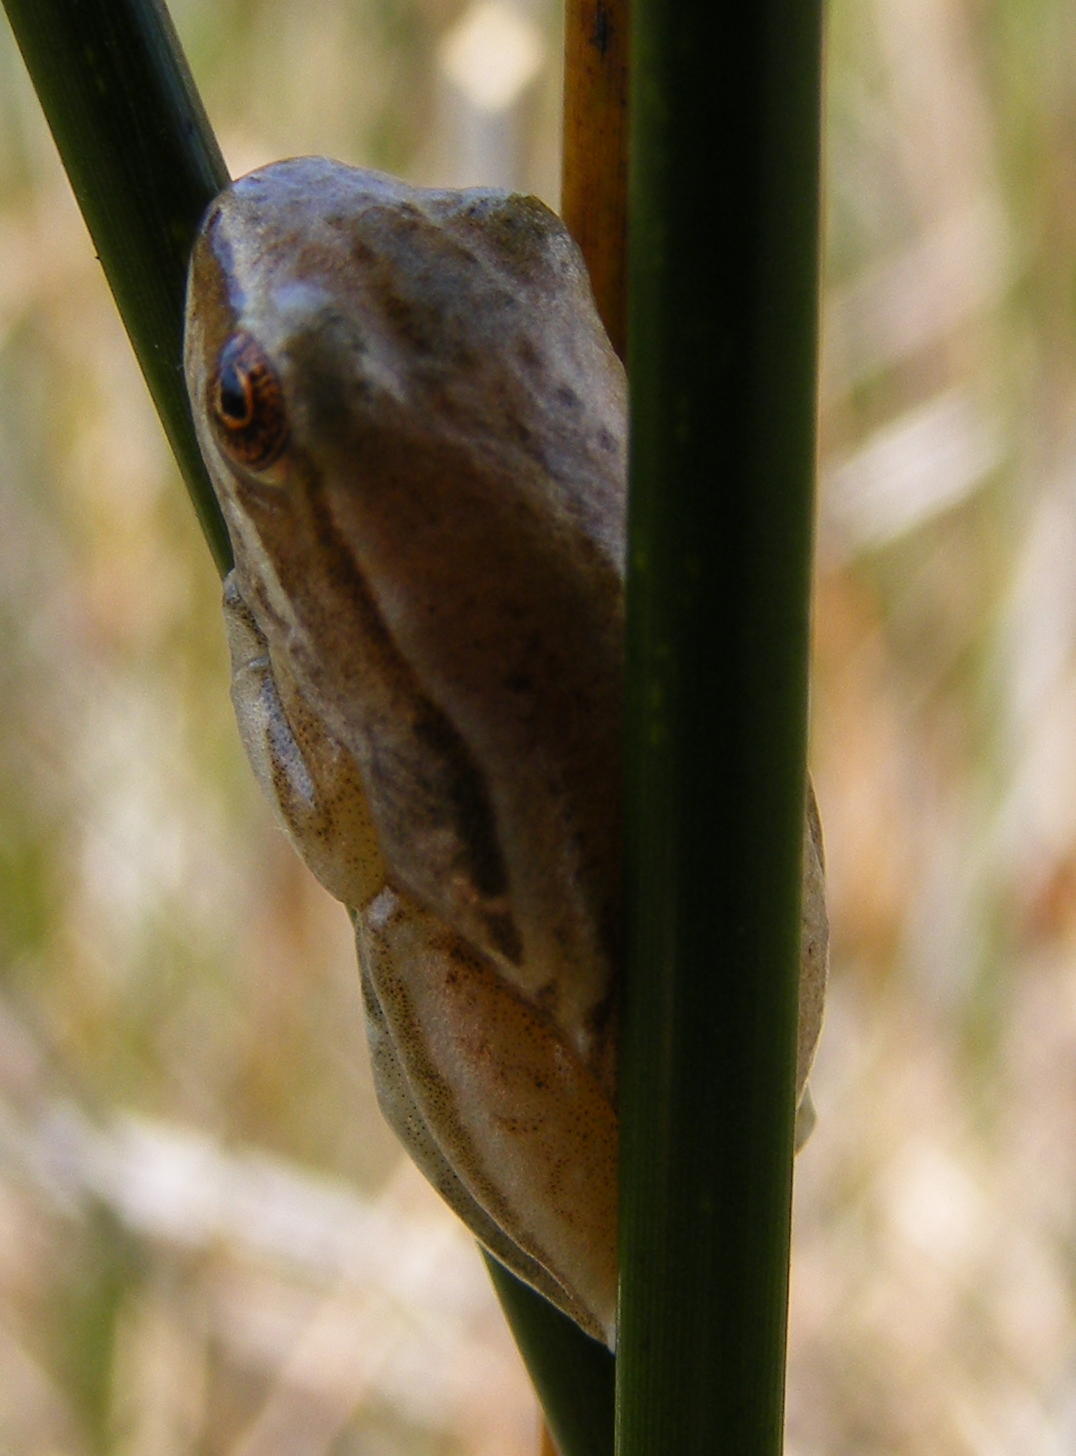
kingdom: Animalia
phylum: Chordata
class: Amphibia
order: Anura
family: Hyperoliidae
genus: Hyperolius
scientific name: Hyperolius marmoratus
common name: Painted reed frog
